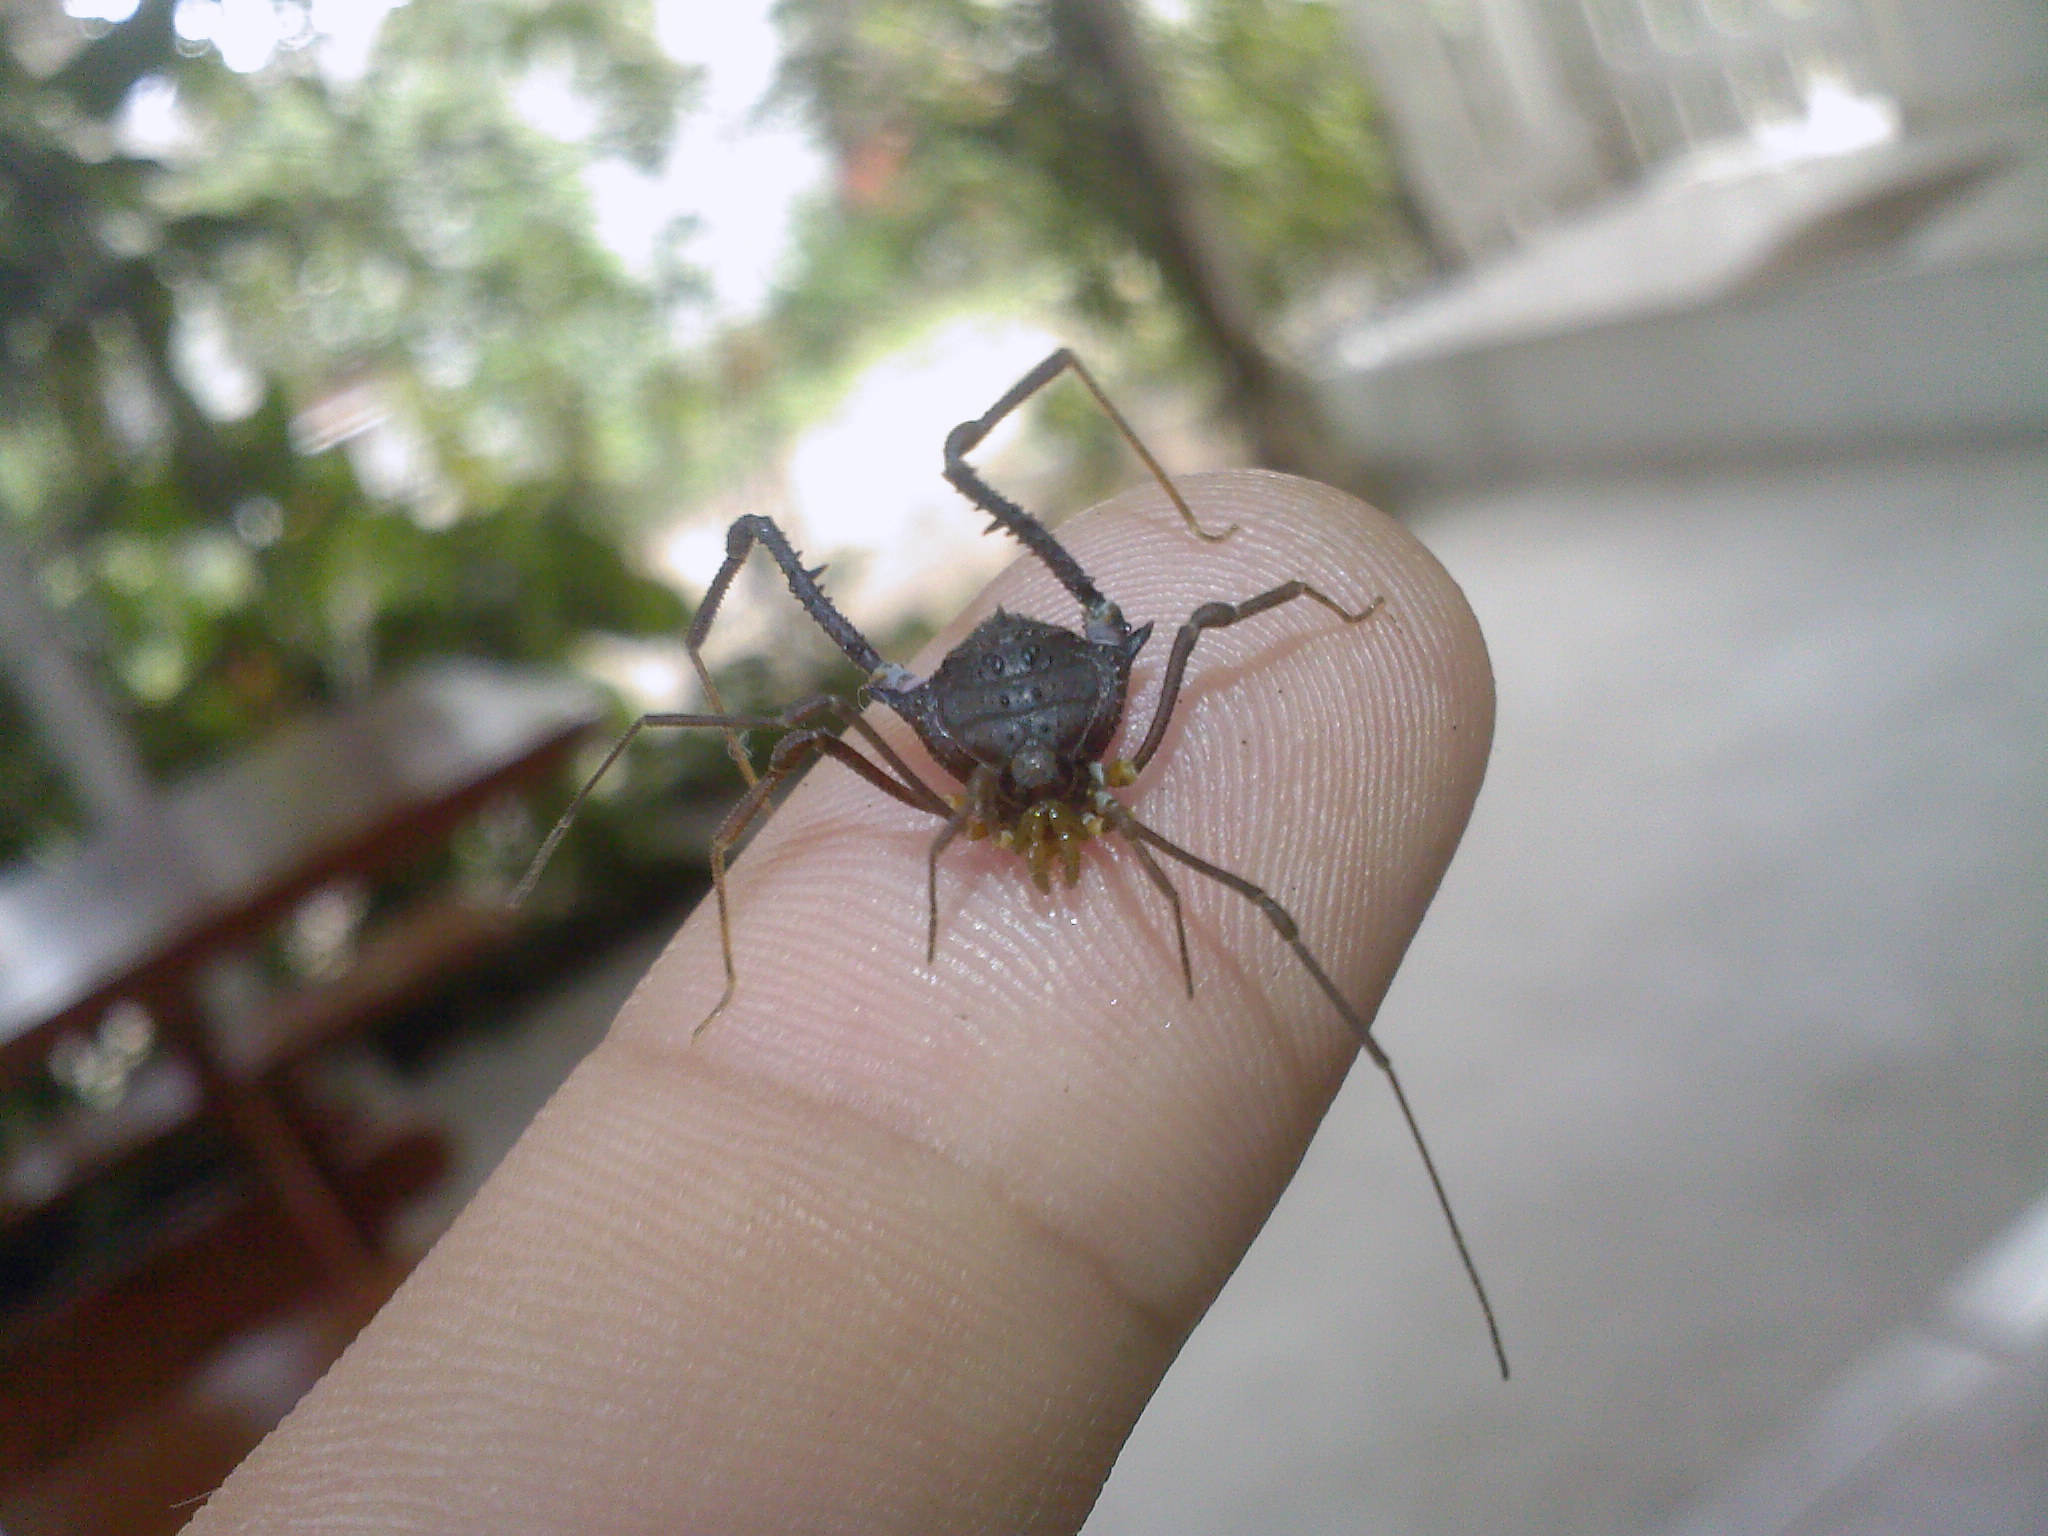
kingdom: Animalia
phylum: Arthropoda
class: Arachnida
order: Opiliones
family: Gonyleptidae
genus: Mischonyx
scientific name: Mischonyx squalidus
